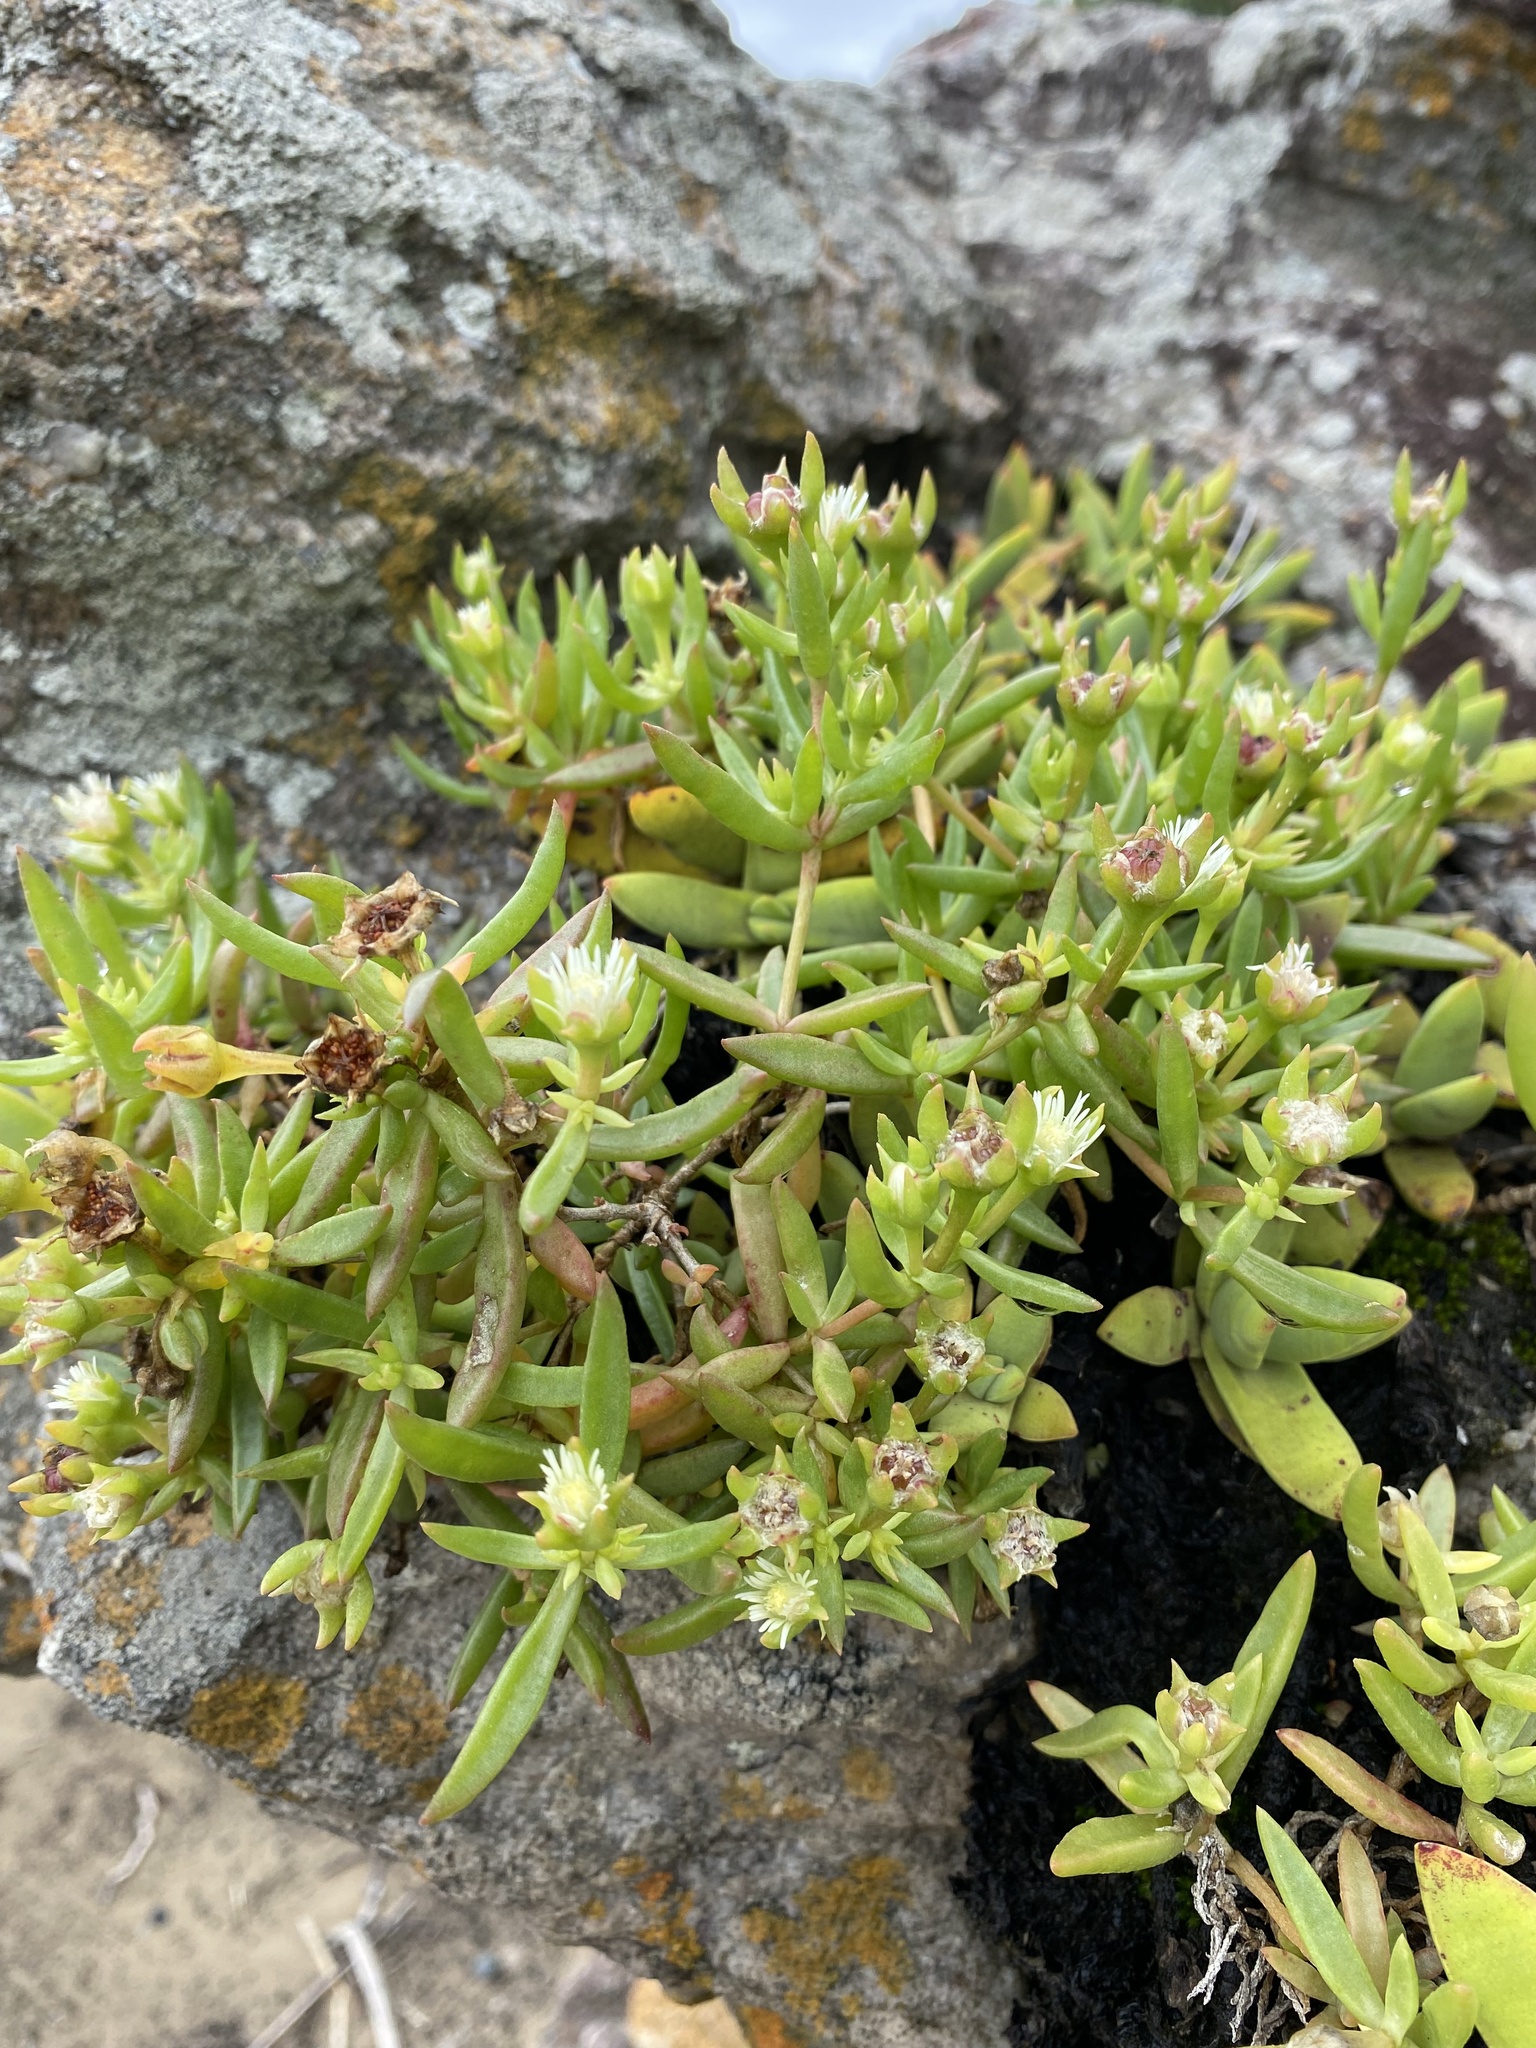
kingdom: Plantae
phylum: Tracheophyta
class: Magnoliopsida
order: Saxifragales
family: Crassulaceae
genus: Crassula
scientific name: Crassula perfoliata
